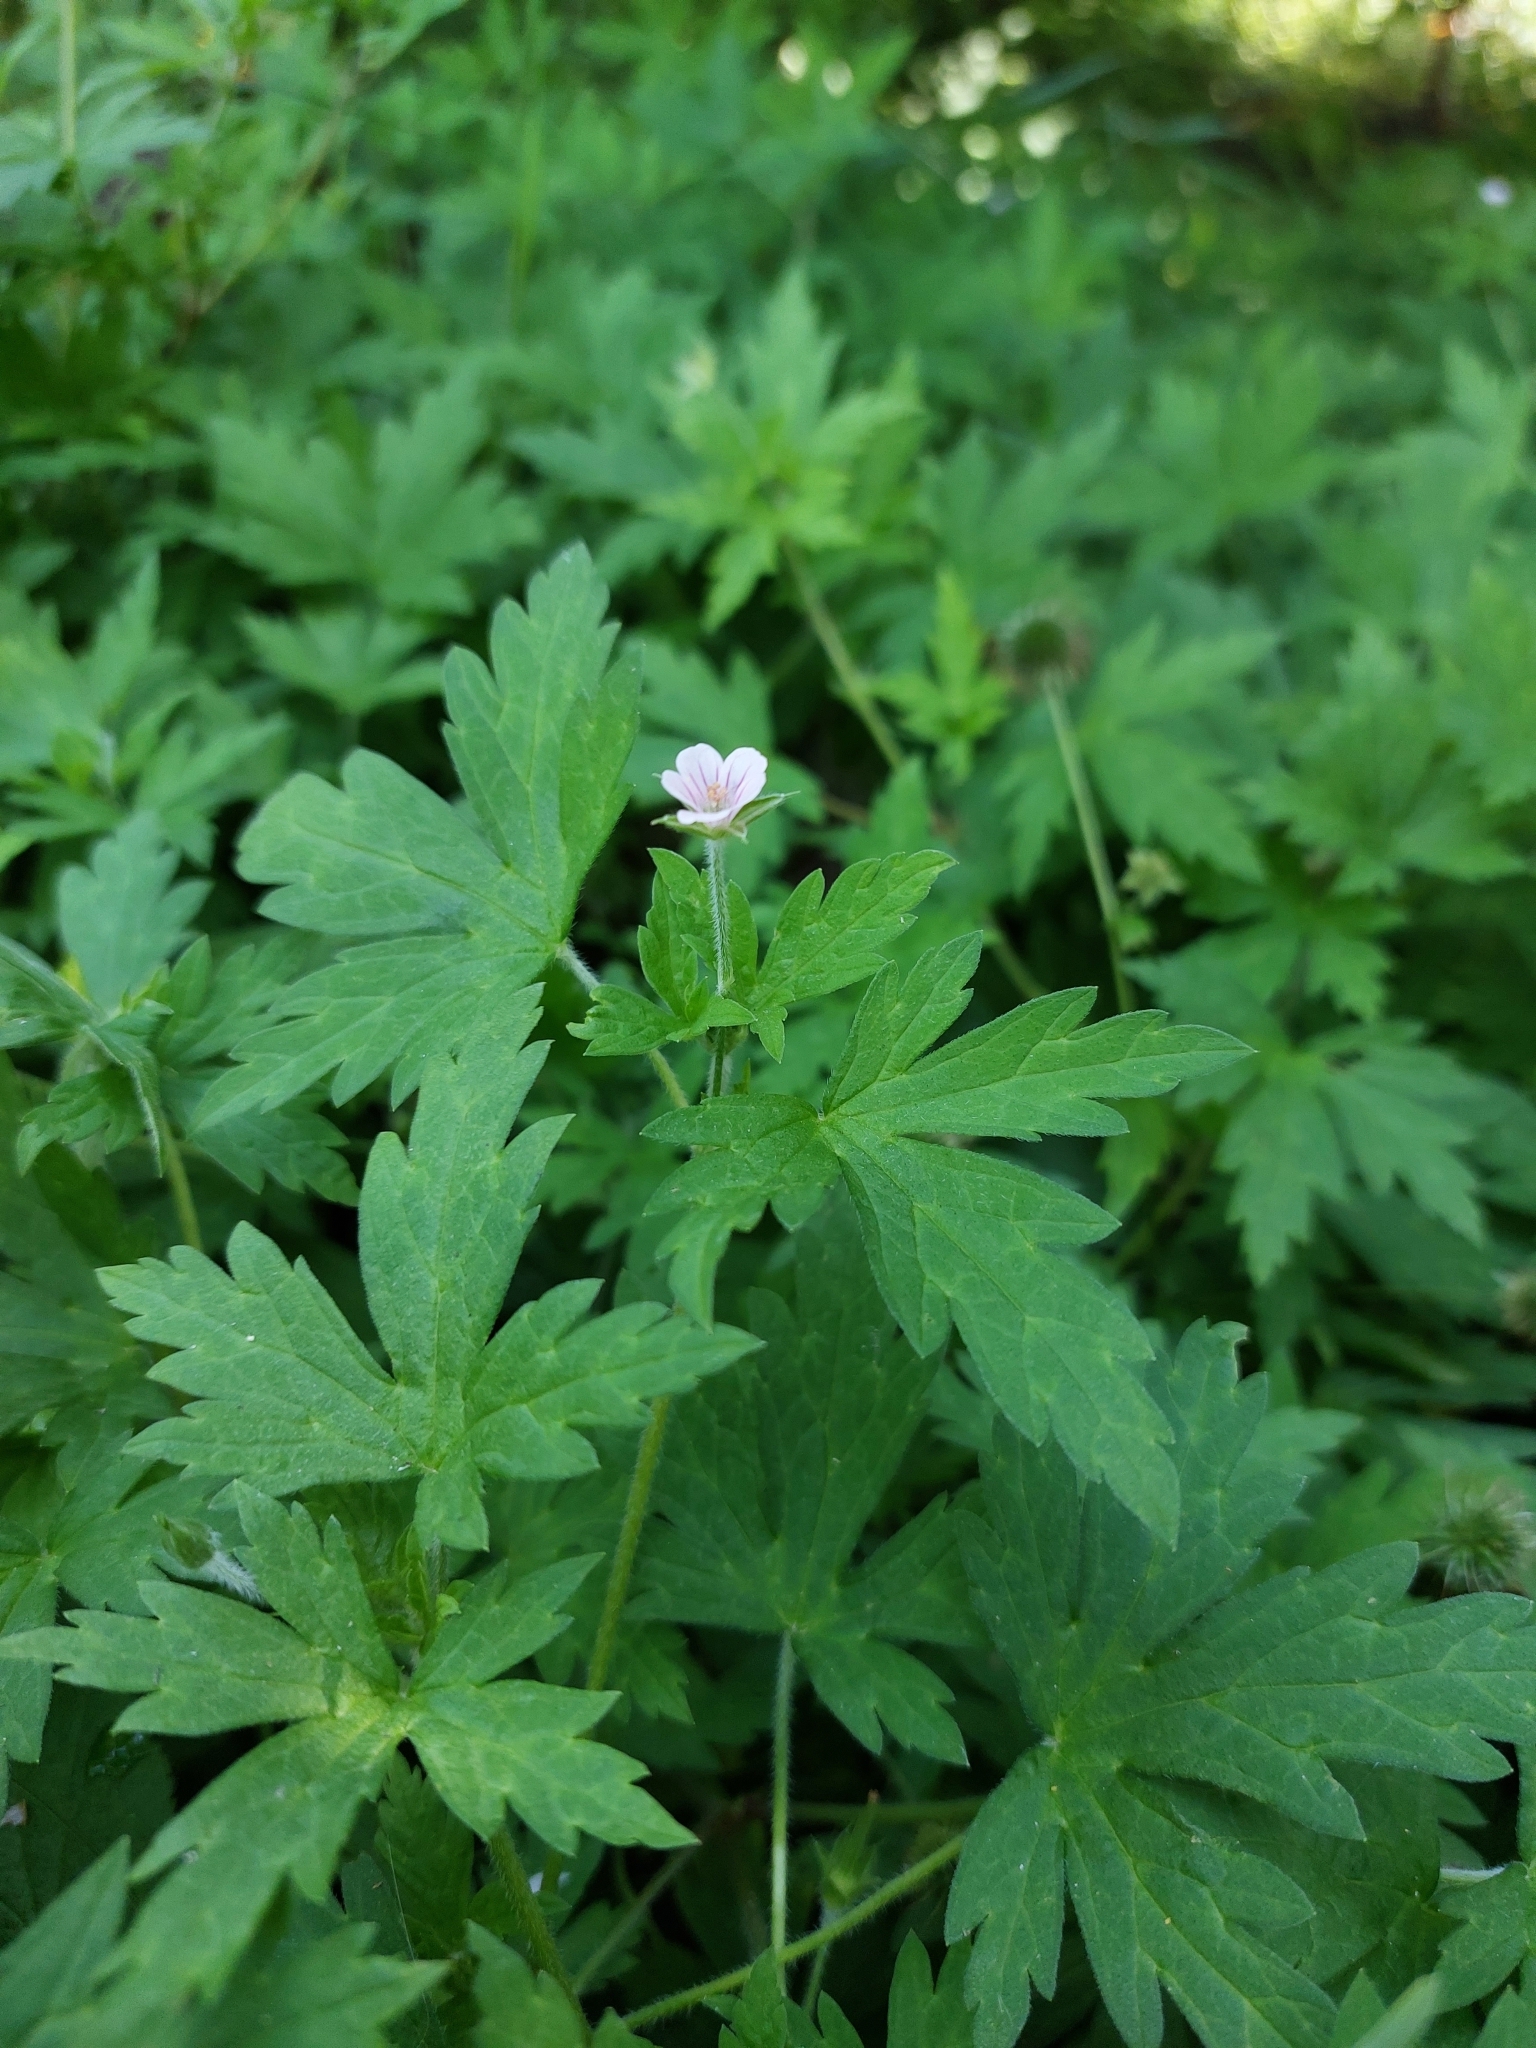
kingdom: Plantae
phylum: Tracheophyta
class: Magnoliopsida
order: Geraniales
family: Geraniaceae
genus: Geranium
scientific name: Geranium sibiricum
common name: Siberian crane's-bill
